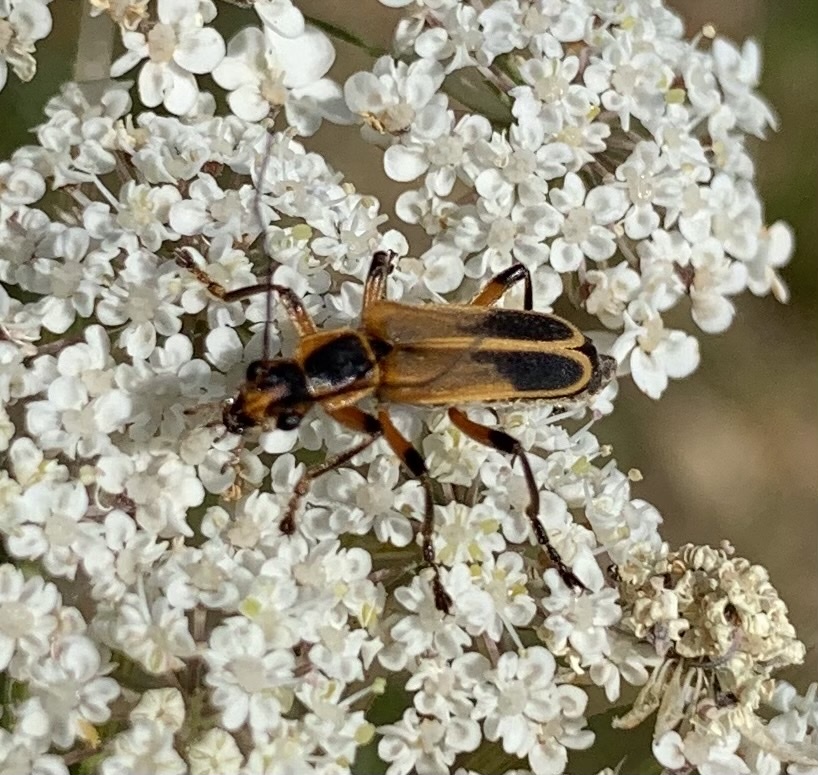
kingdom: Animalia
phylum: Arthropoda
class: Insecta
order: Coleoptera
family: Cantharidae
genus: Chauliognathus
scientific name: Chauliognathus marginatus
